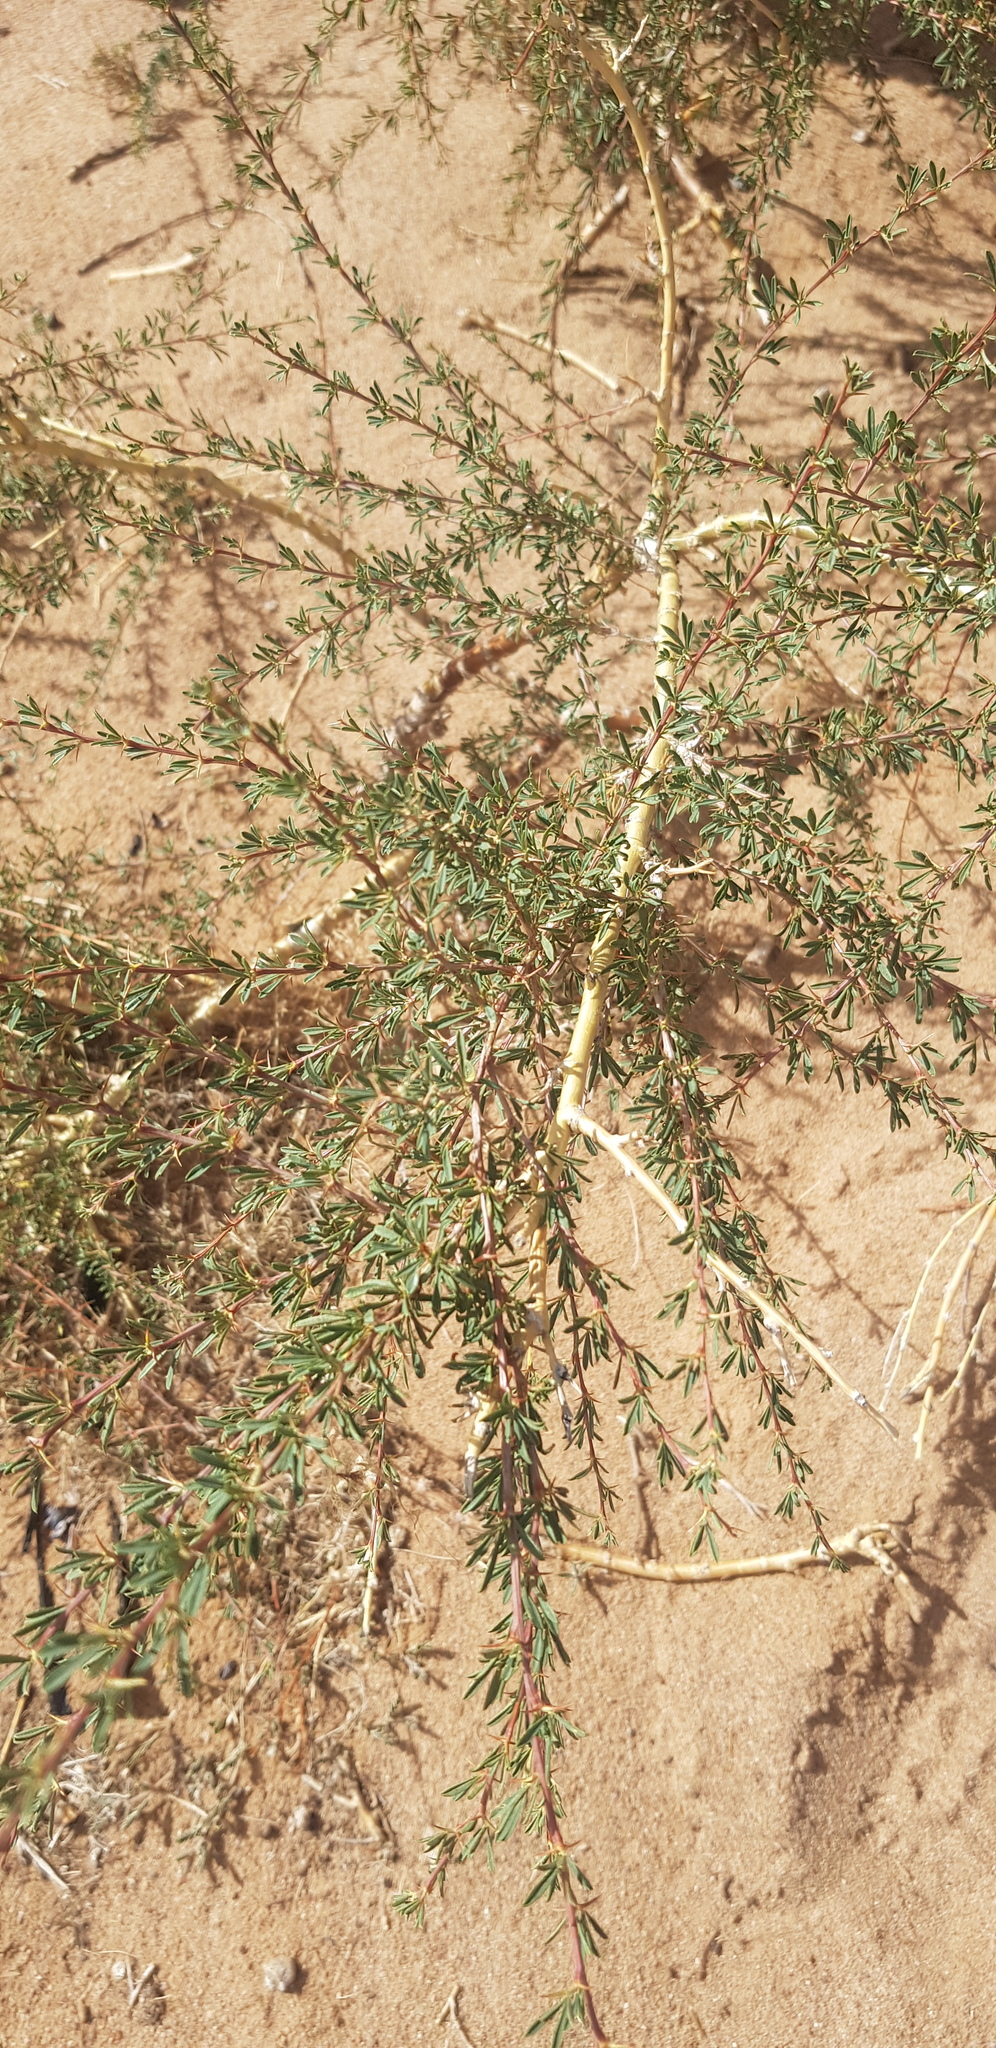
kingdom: Plantae
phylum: Tracheophyta
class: Magnoliopsida
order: Fabales
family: Fabaceae
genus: Caragana
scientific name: Caragana pygmaea
